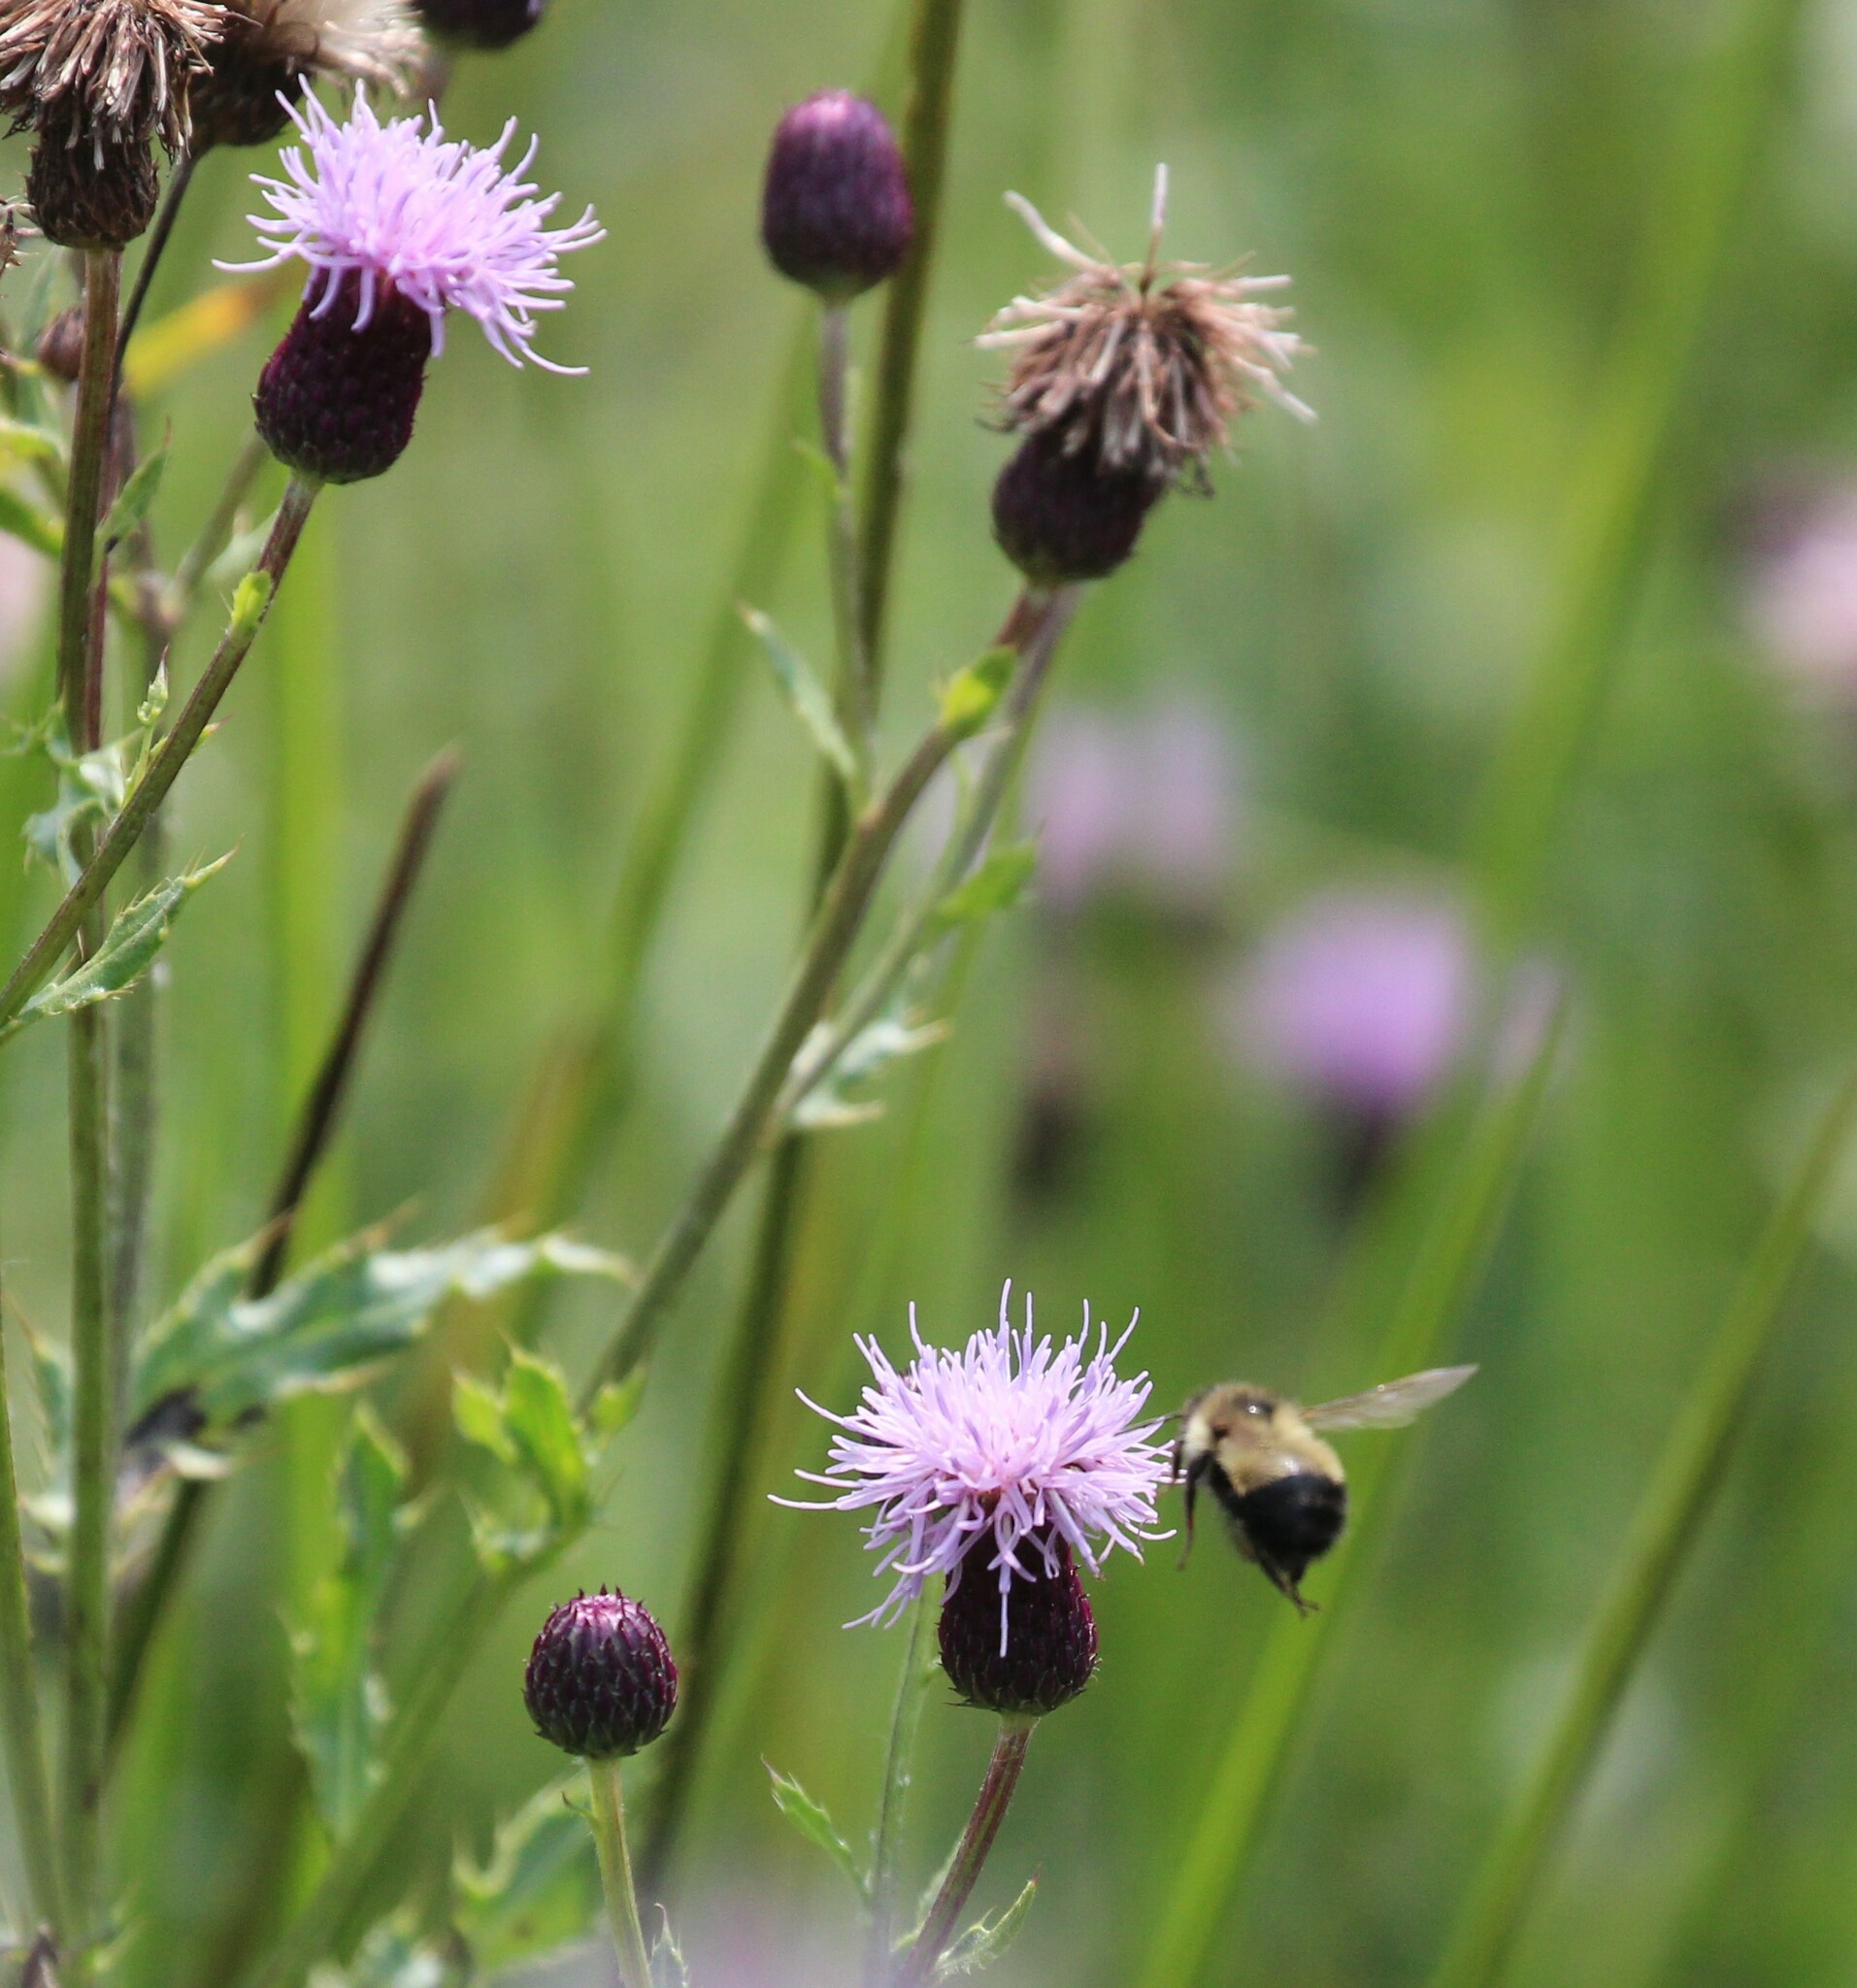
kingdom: Animalia
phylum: Arthropoda
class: Insecta
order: Hymenoptera
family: Apidae
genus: Pyrobombus
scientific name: Pyrobombus
